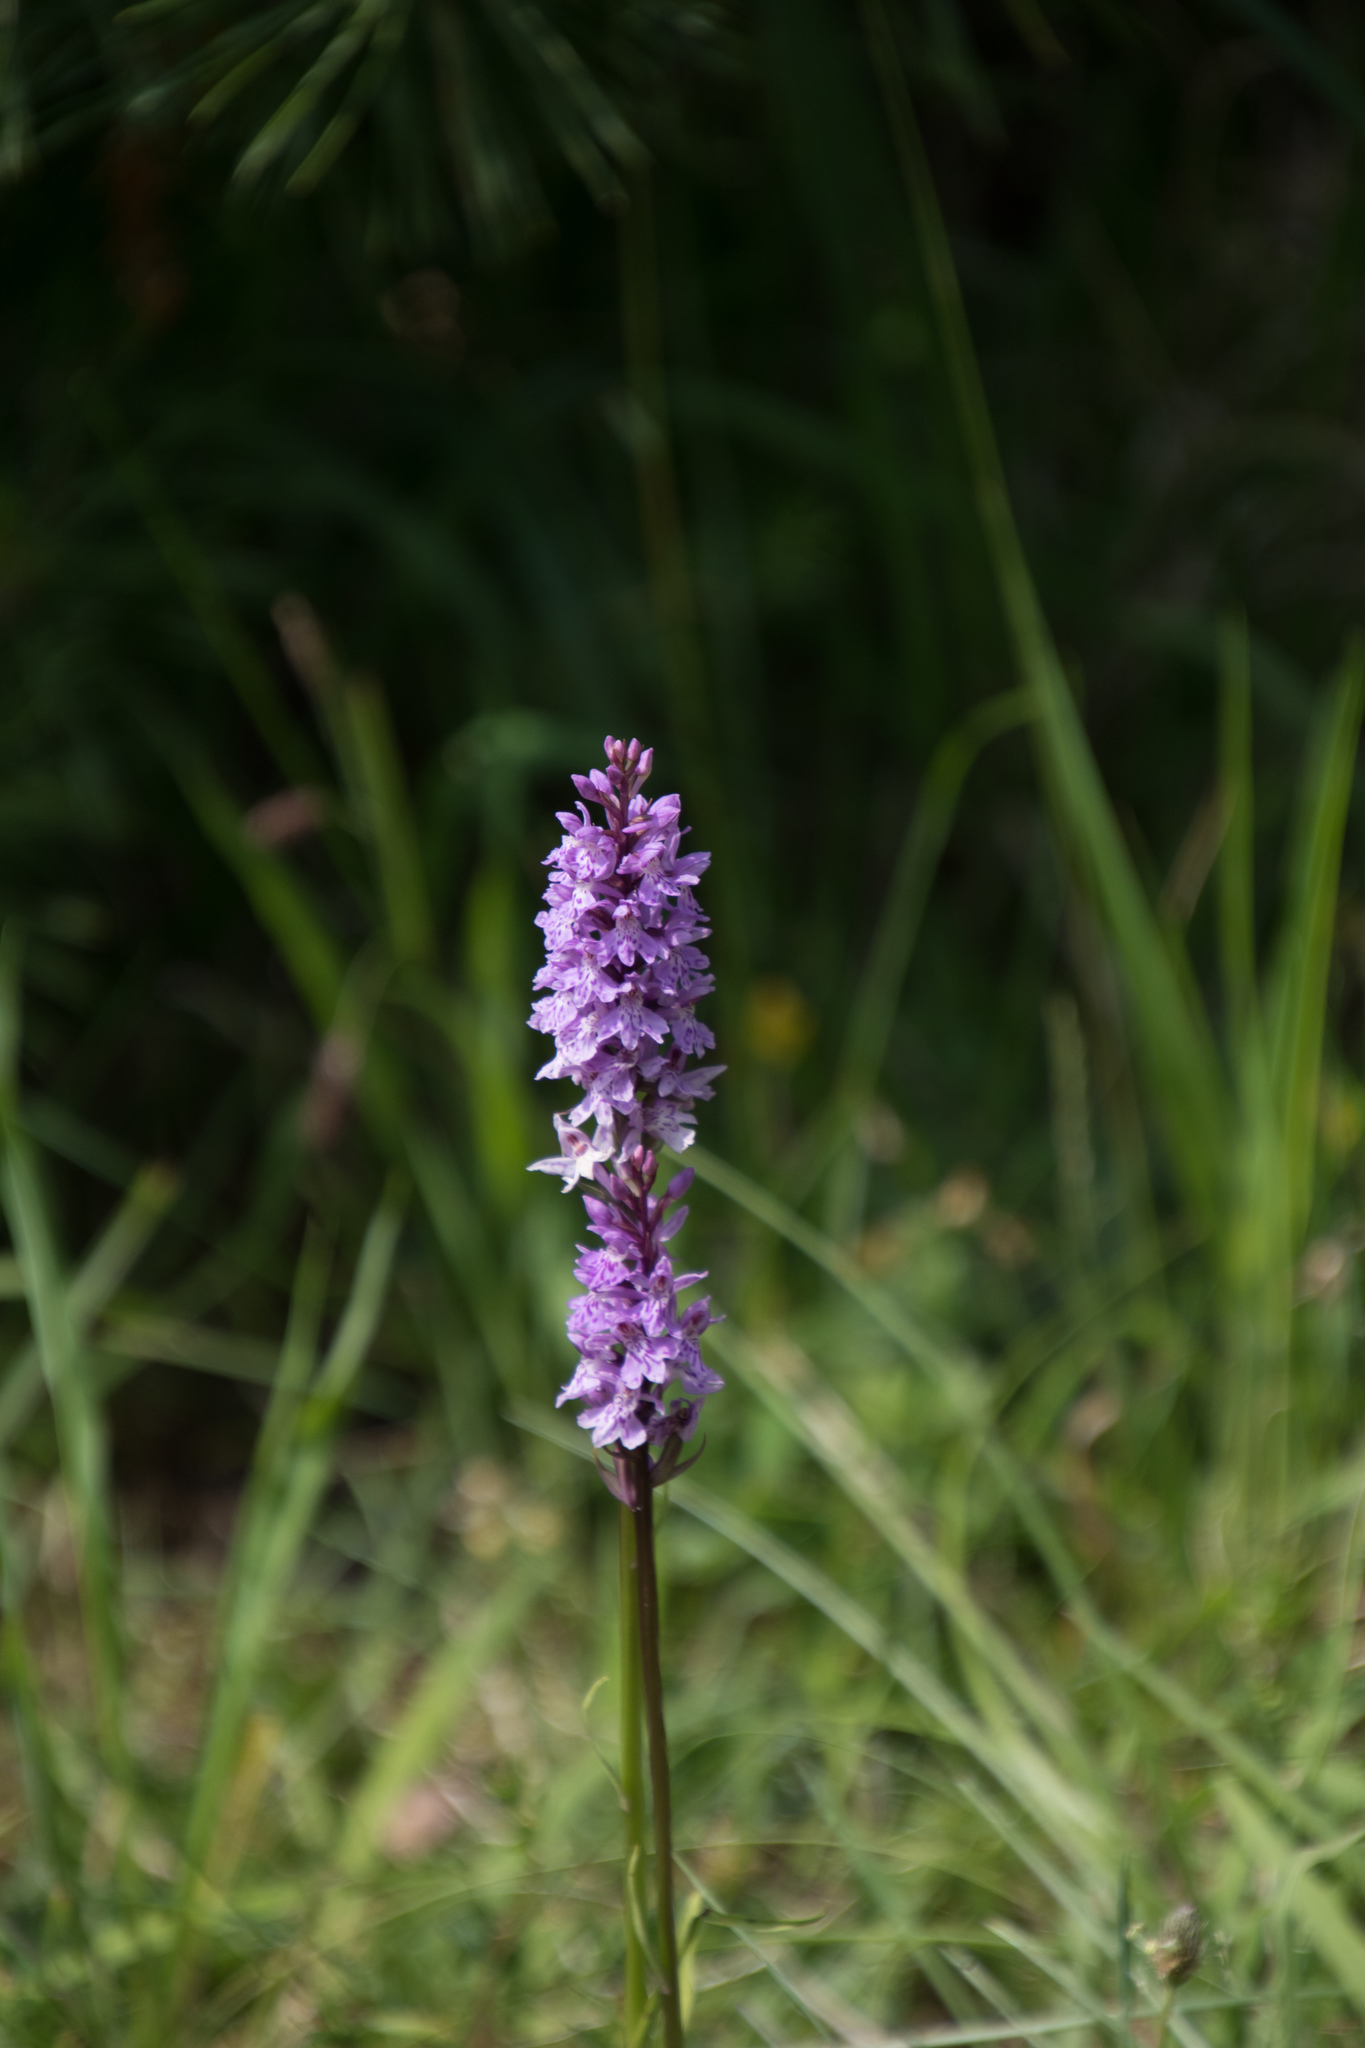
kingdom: Plantae
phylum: Tracheophyta
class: Liliopsida
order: Asparagales
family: Orchidaceae
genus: Dactylorhiza
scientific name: Dactylorhiza maculata
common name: Heath spotted-orchid
